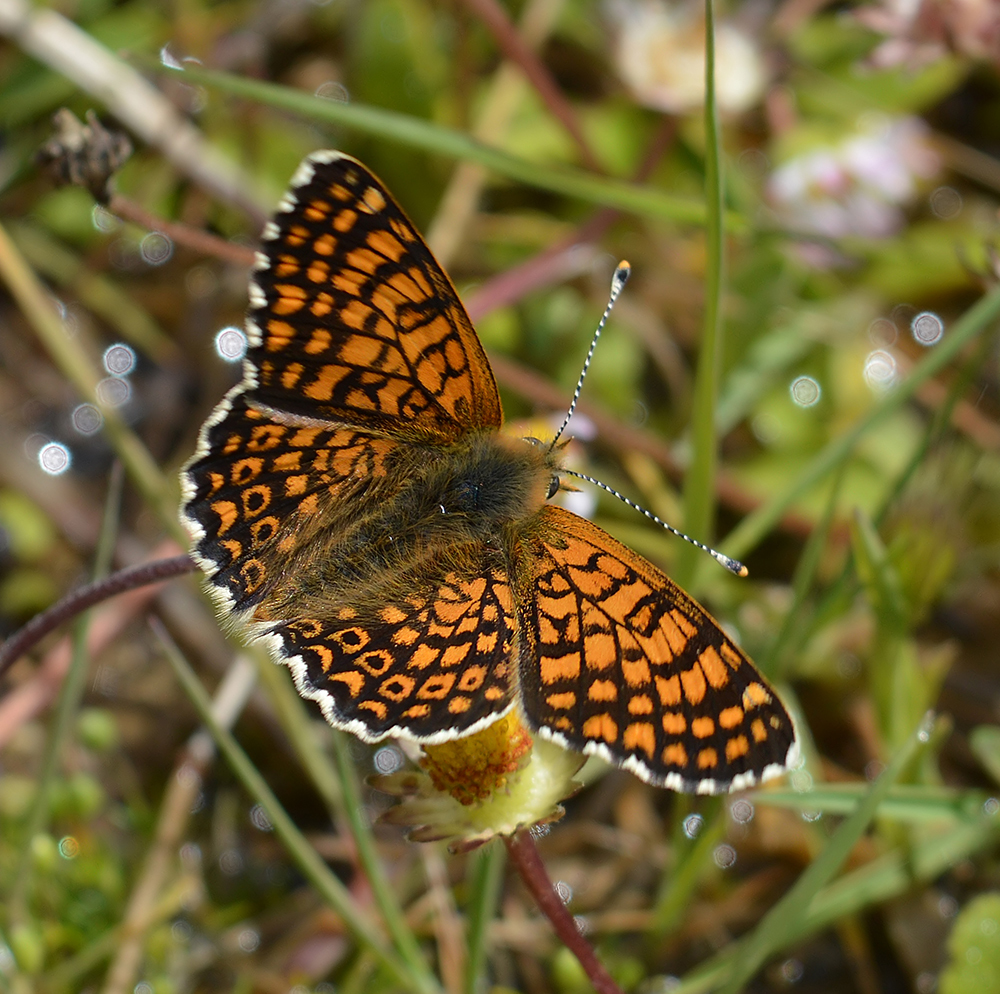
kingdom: Animalia
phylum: Arthropoda
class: Insecta
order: Lepidoptera
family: Nymphalidae
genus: Melitaea
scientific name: Melitaea cinxia
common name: Glanville fritillary
